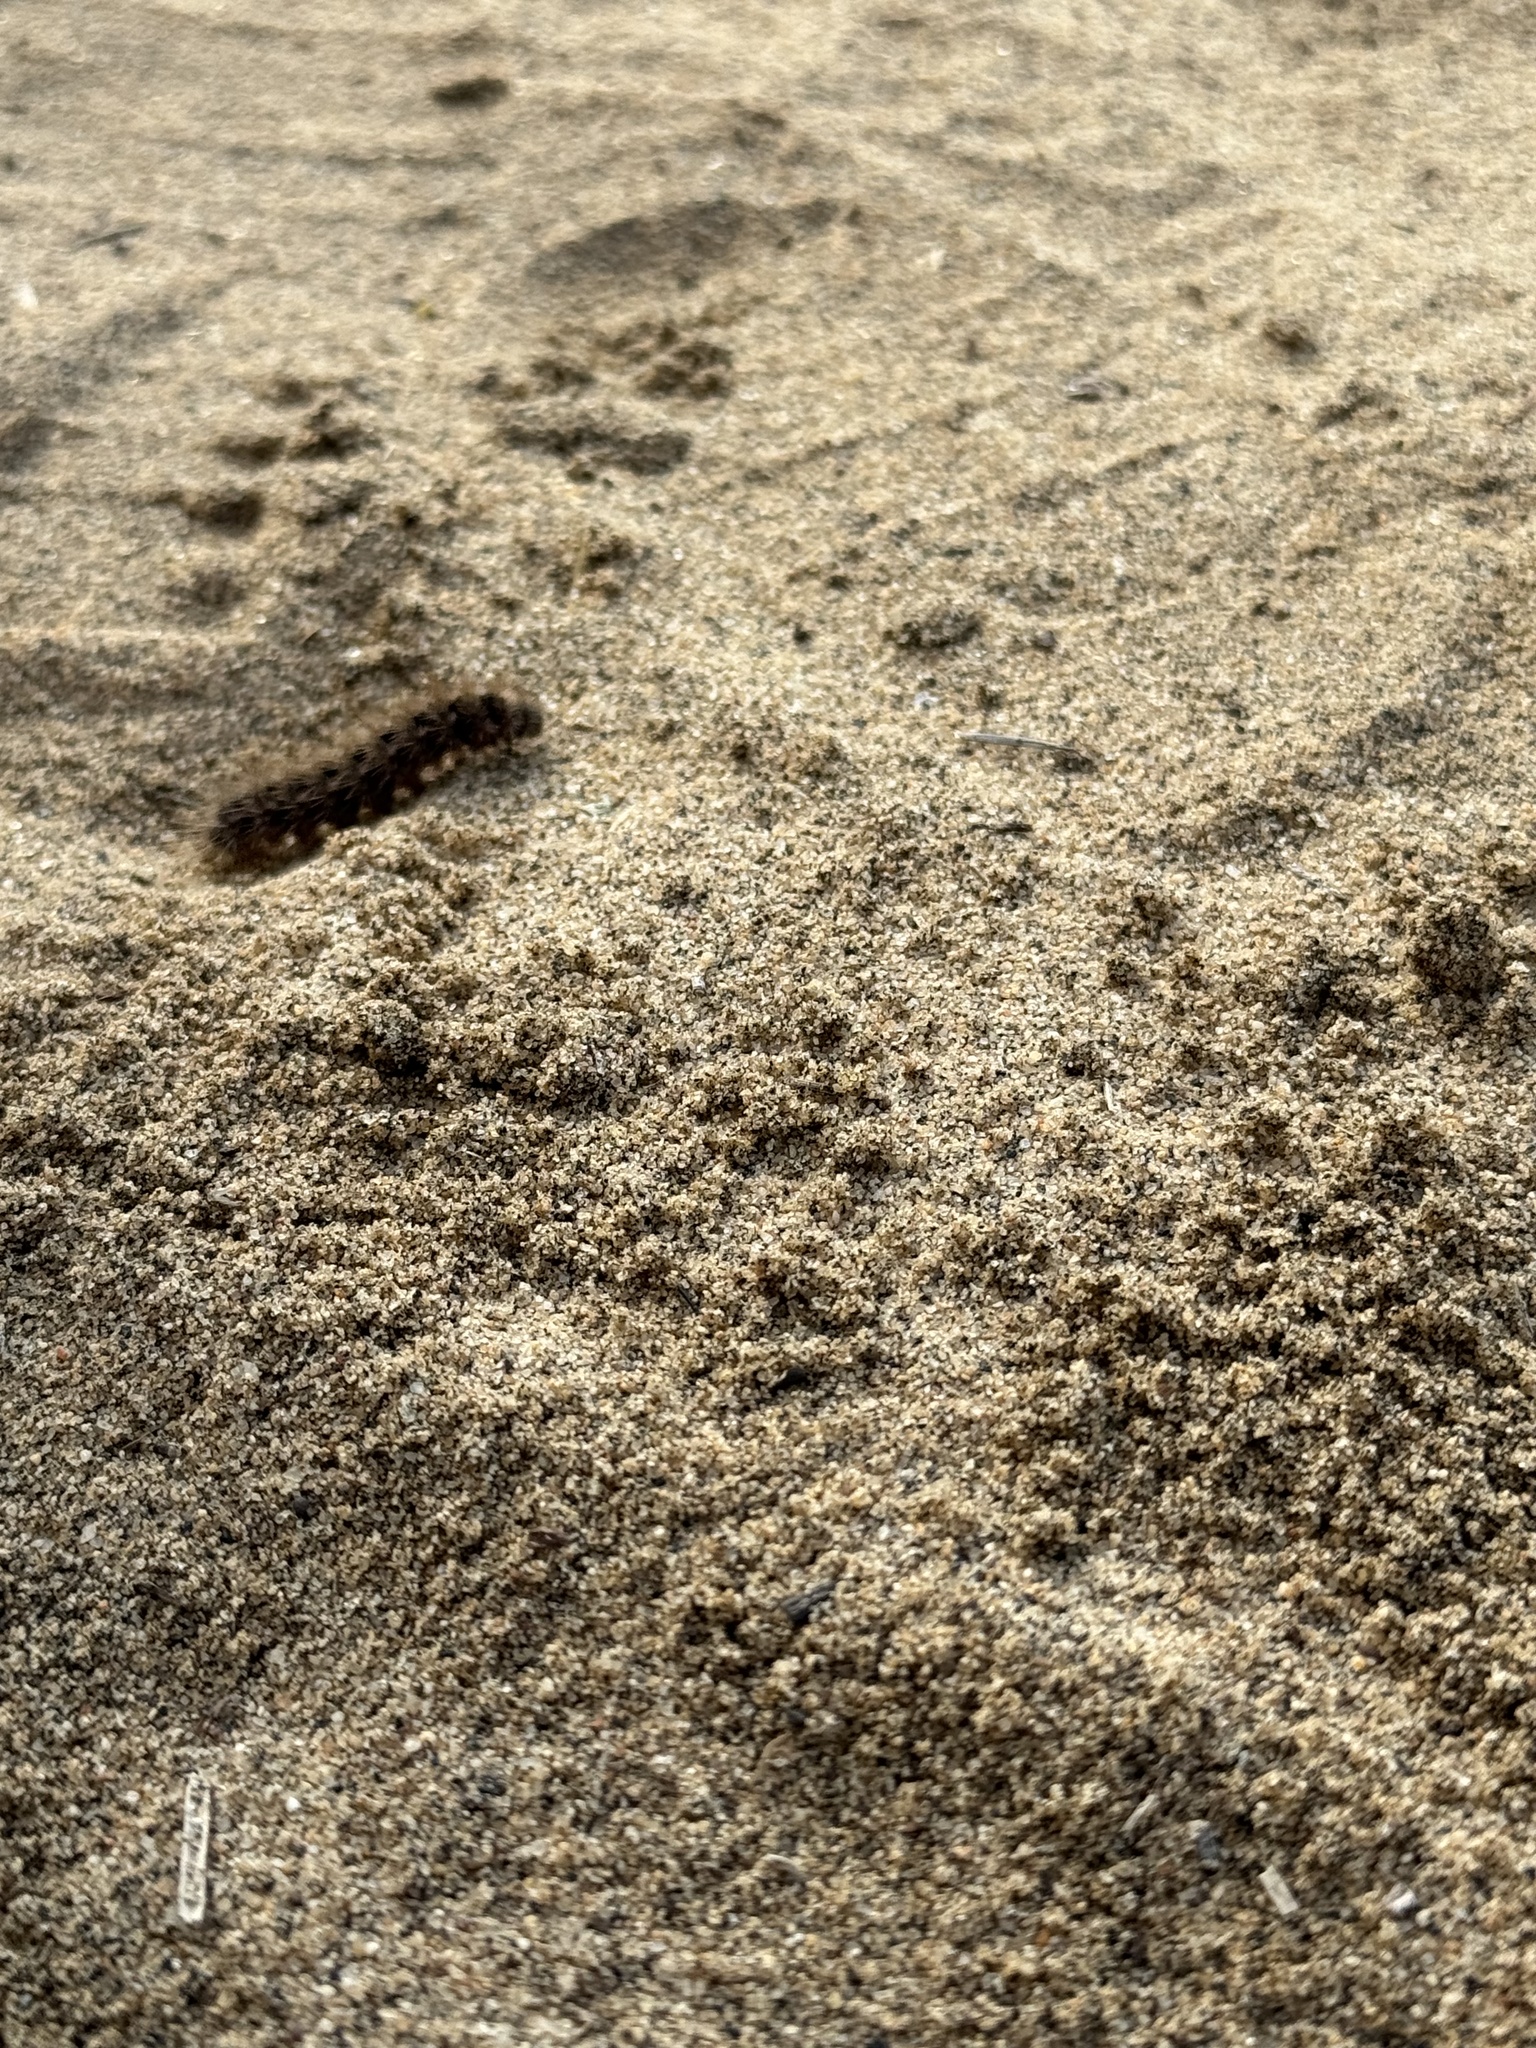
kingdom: Animalia
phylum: Arthropoda
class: Insecta
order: Lepidoptera
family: Erebidae
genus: Estigmene
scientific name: Estigmene acrea
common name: Salt marsh moth
